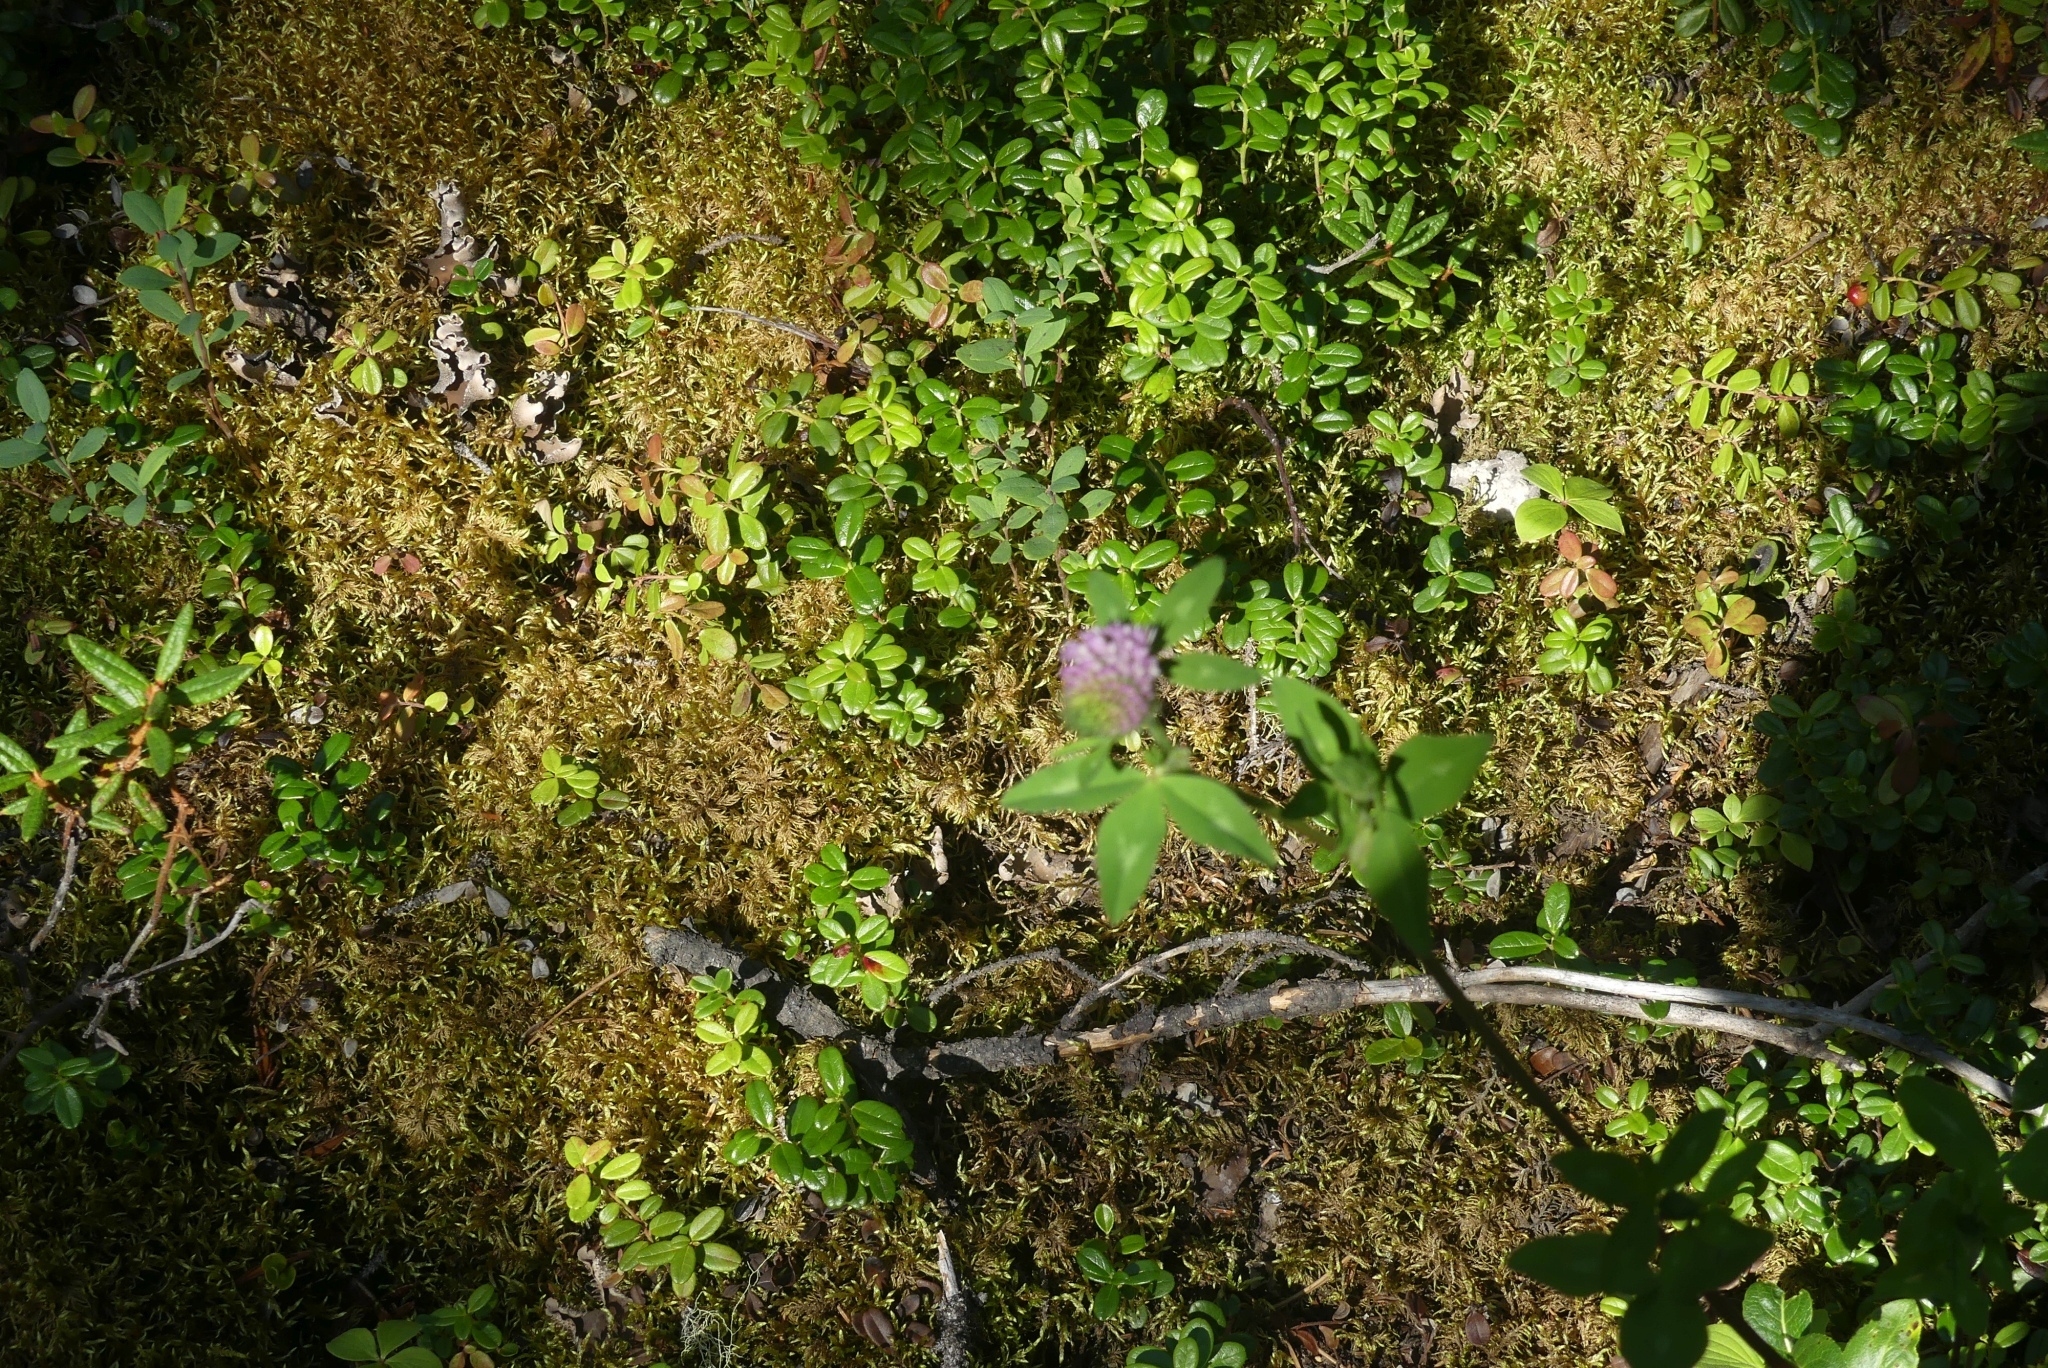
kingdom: Plantae
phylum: Tracheophyta
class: Magnoliopsida
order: Fabales
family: Fabaceae
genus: Trifolium
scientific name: Trifolium pratense
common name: Red clover
